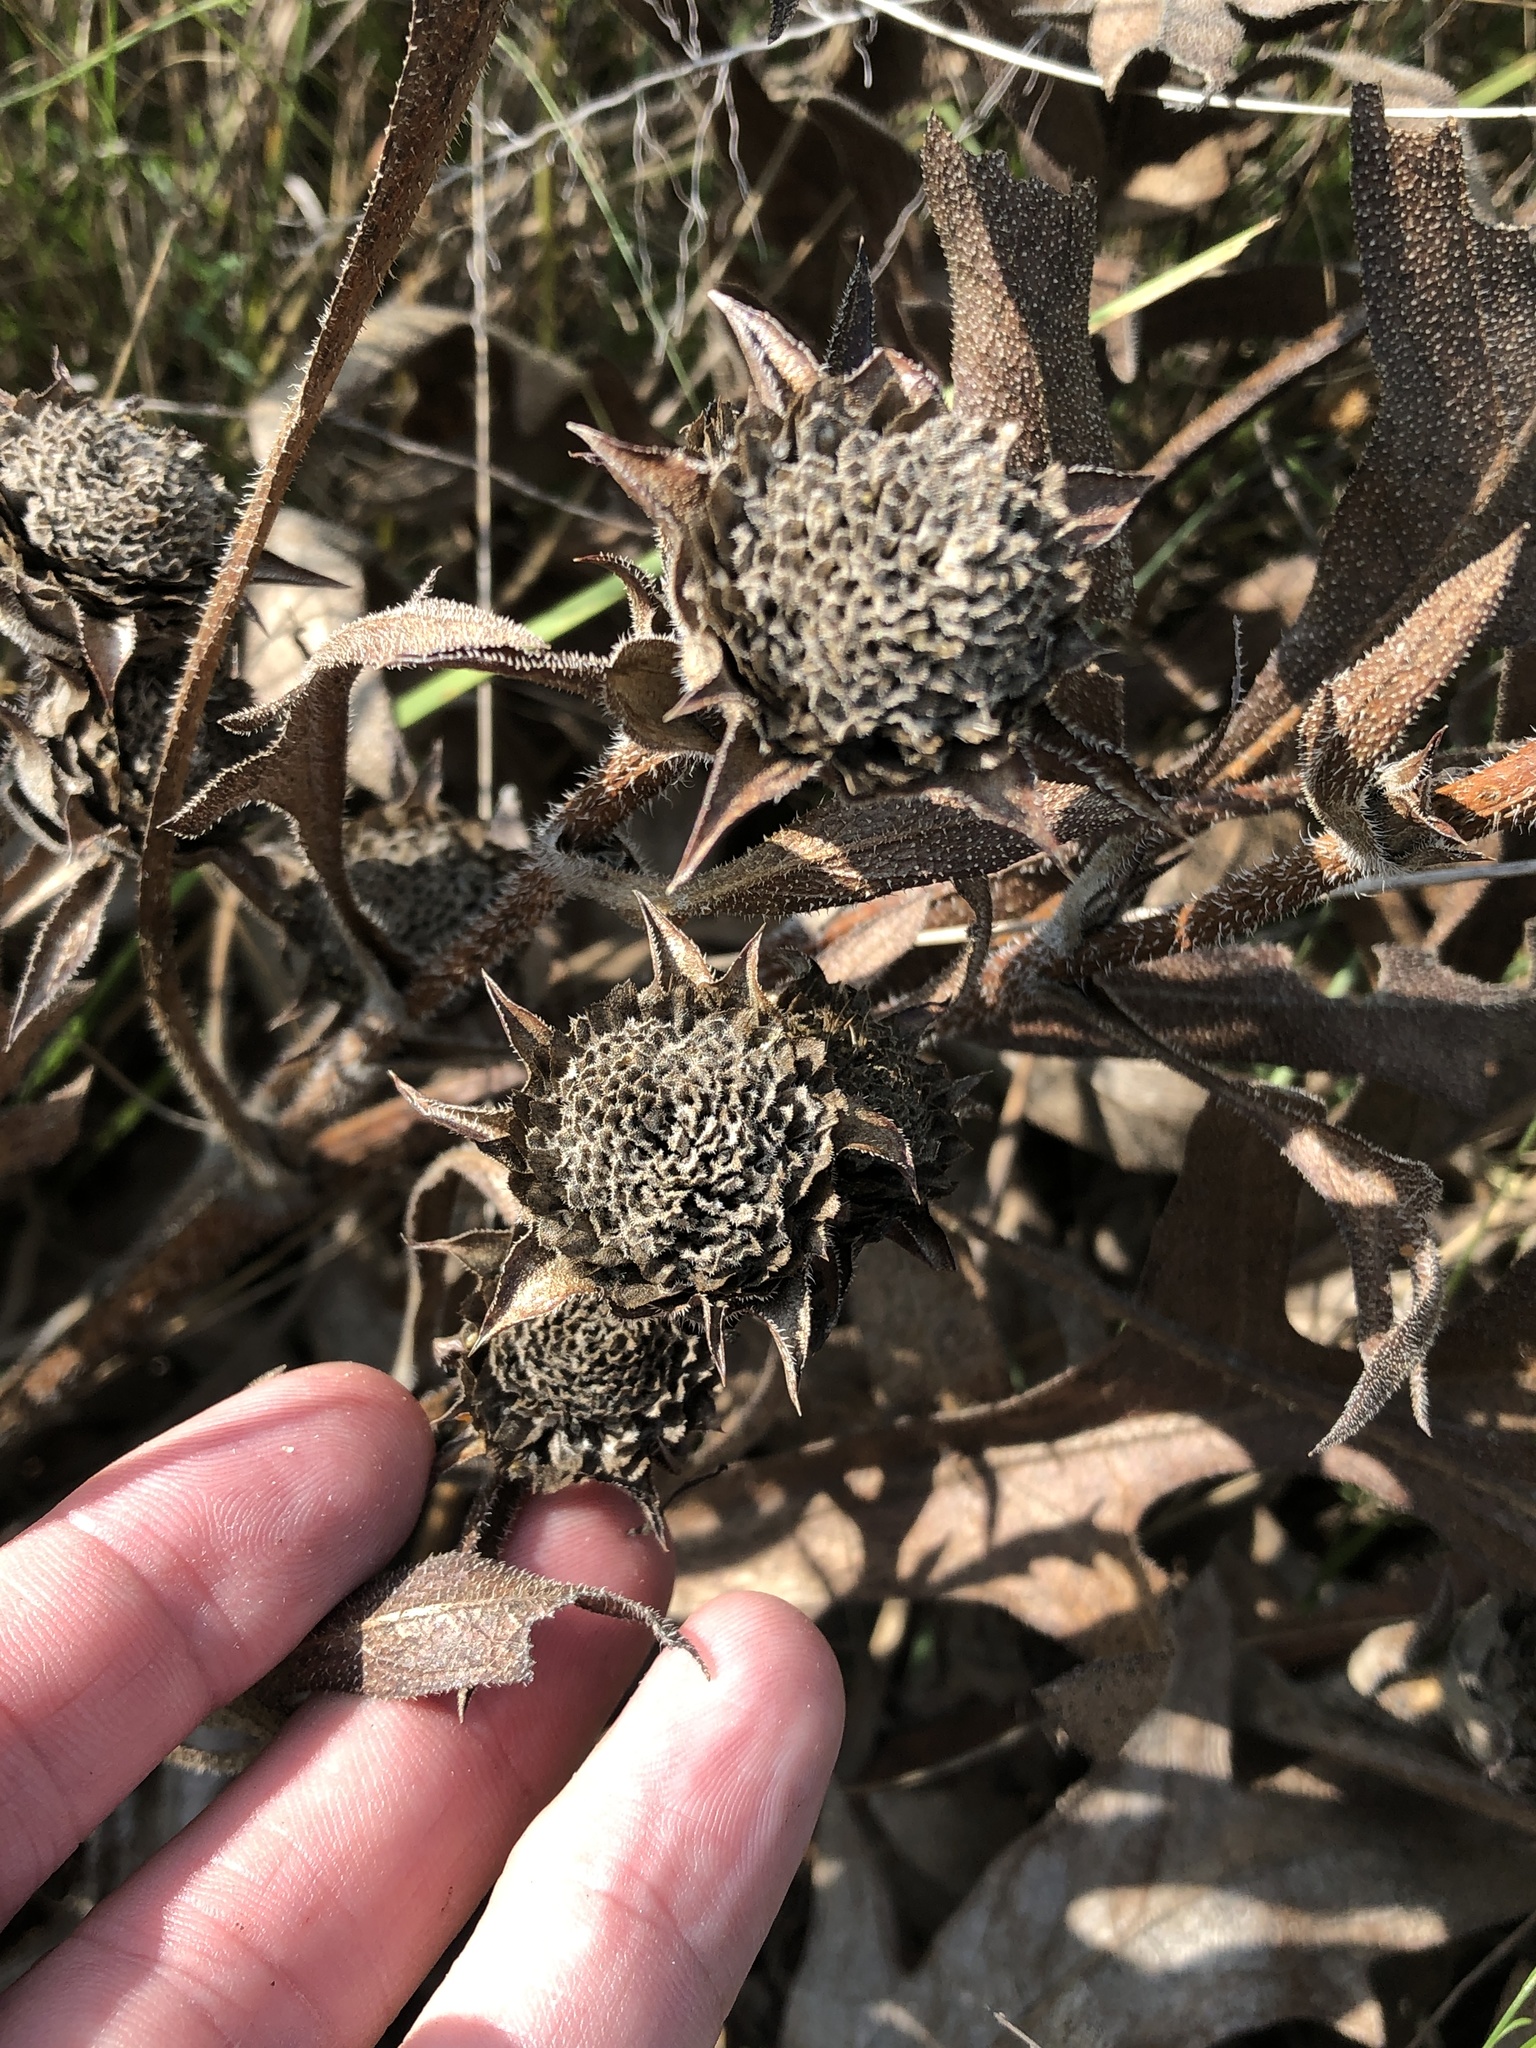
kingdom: Plantae
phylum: Tracheophyta
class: Magnoliopsida
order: Asterales
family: Asteraceae
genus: Silphium
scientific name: Silphium albiflorum
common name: White rosinweed
